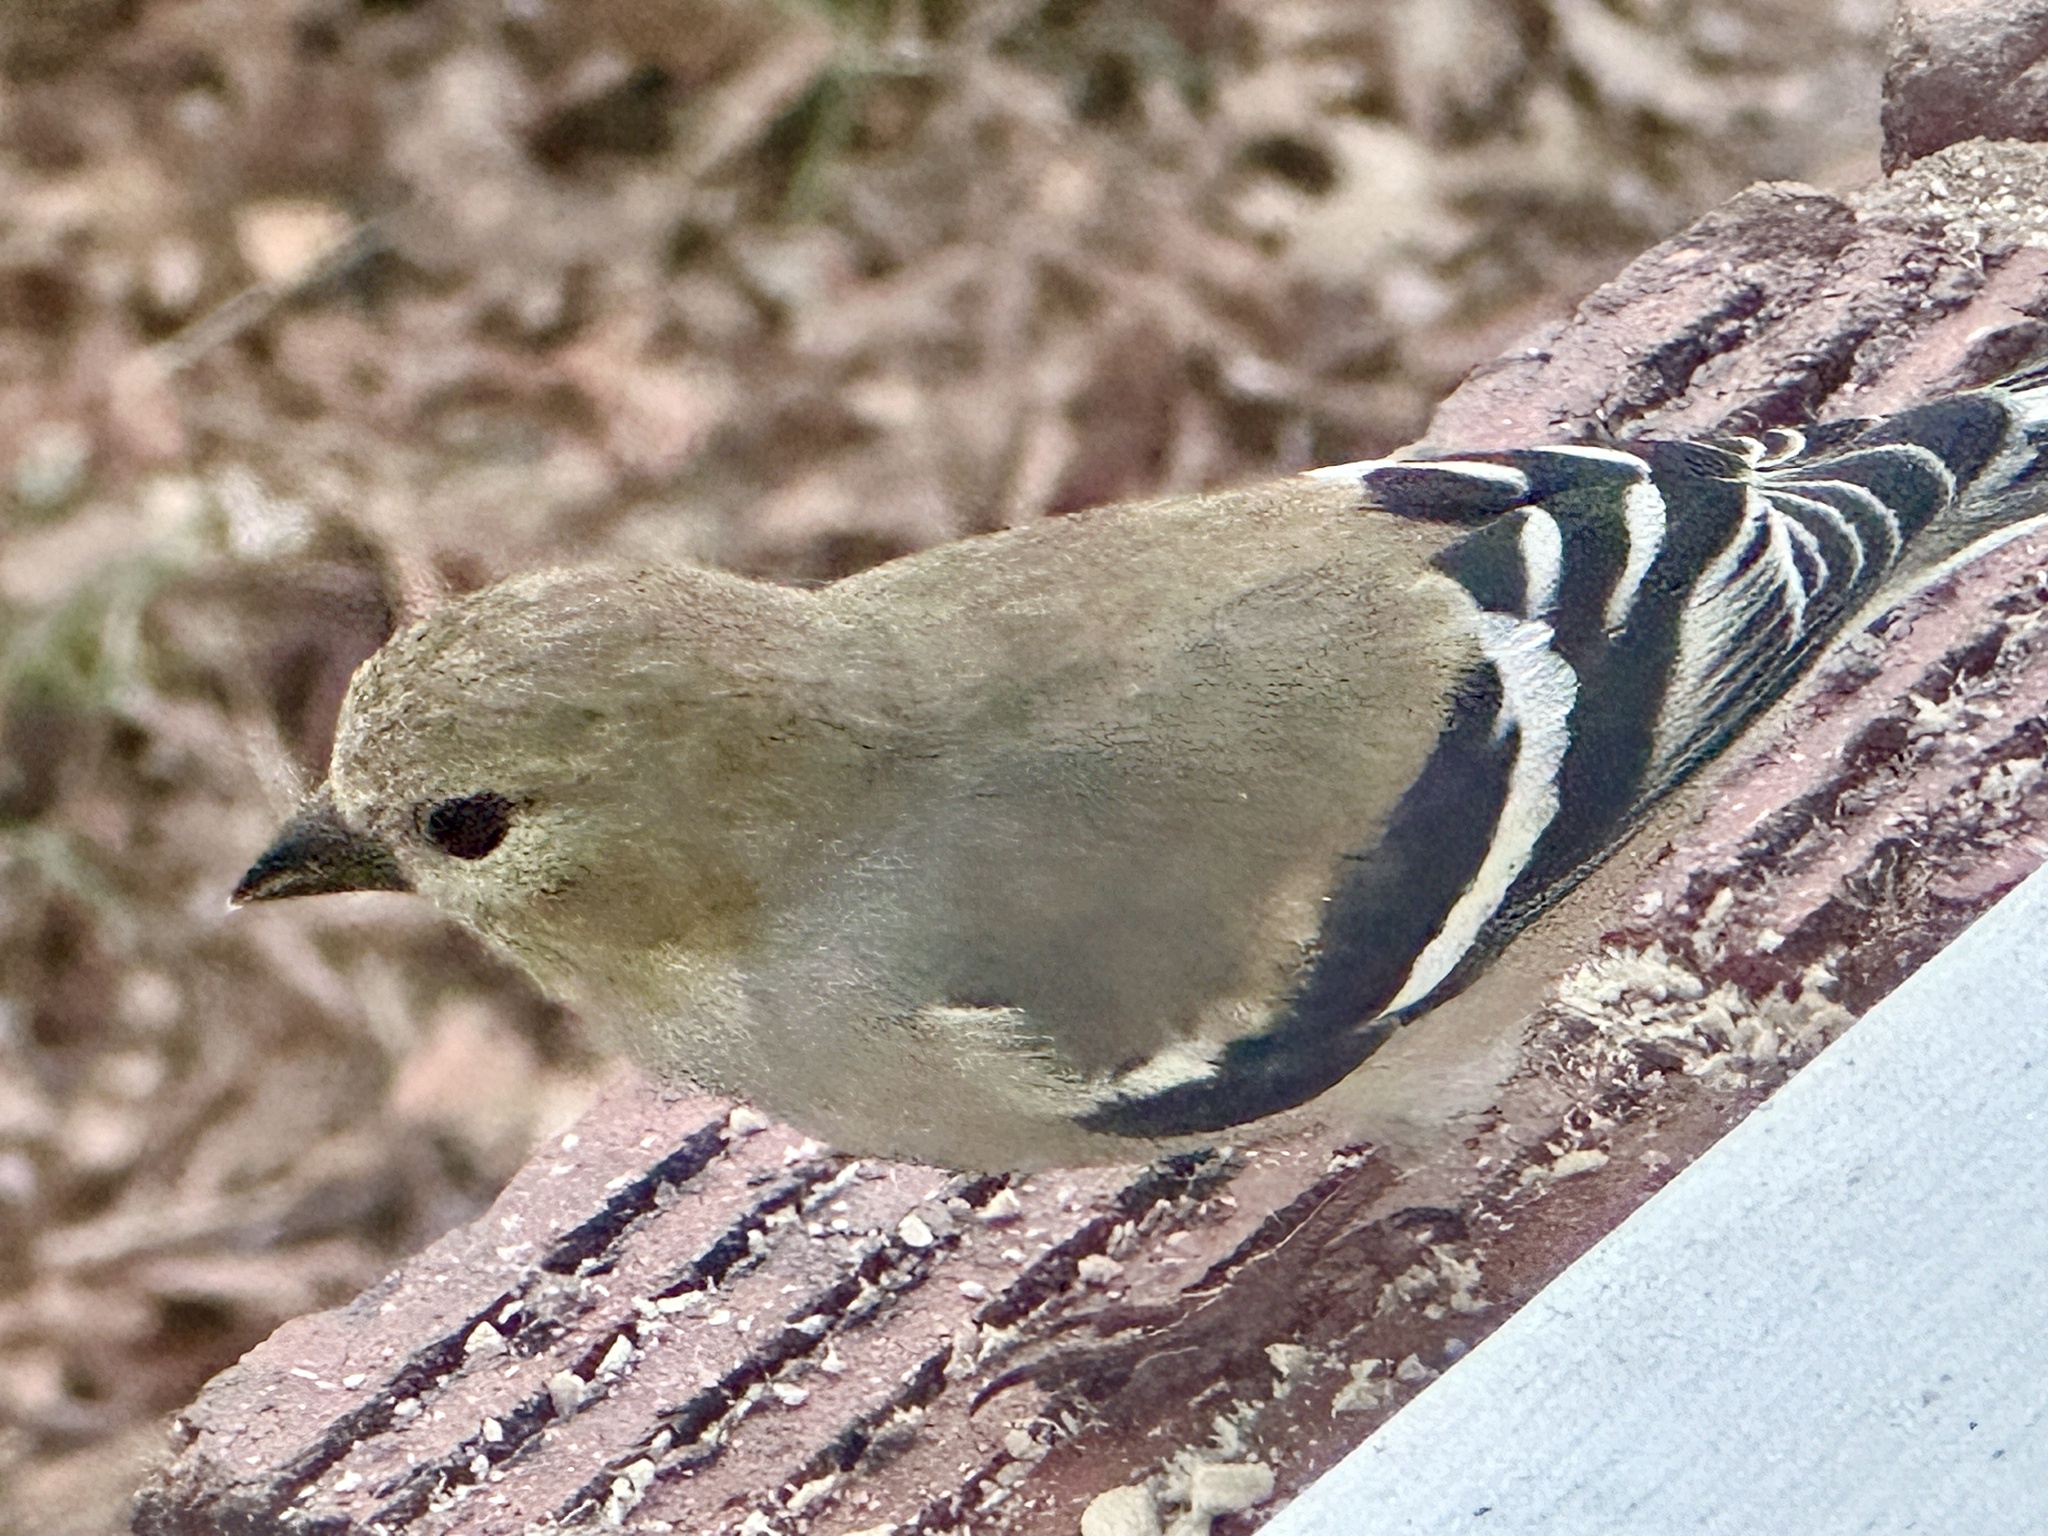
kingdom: Animalia
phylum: Chordata
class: Aves
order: Passeriformes
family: Fringillidae
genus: Spinus
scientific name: Spinus tristis
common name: American goldfinch
